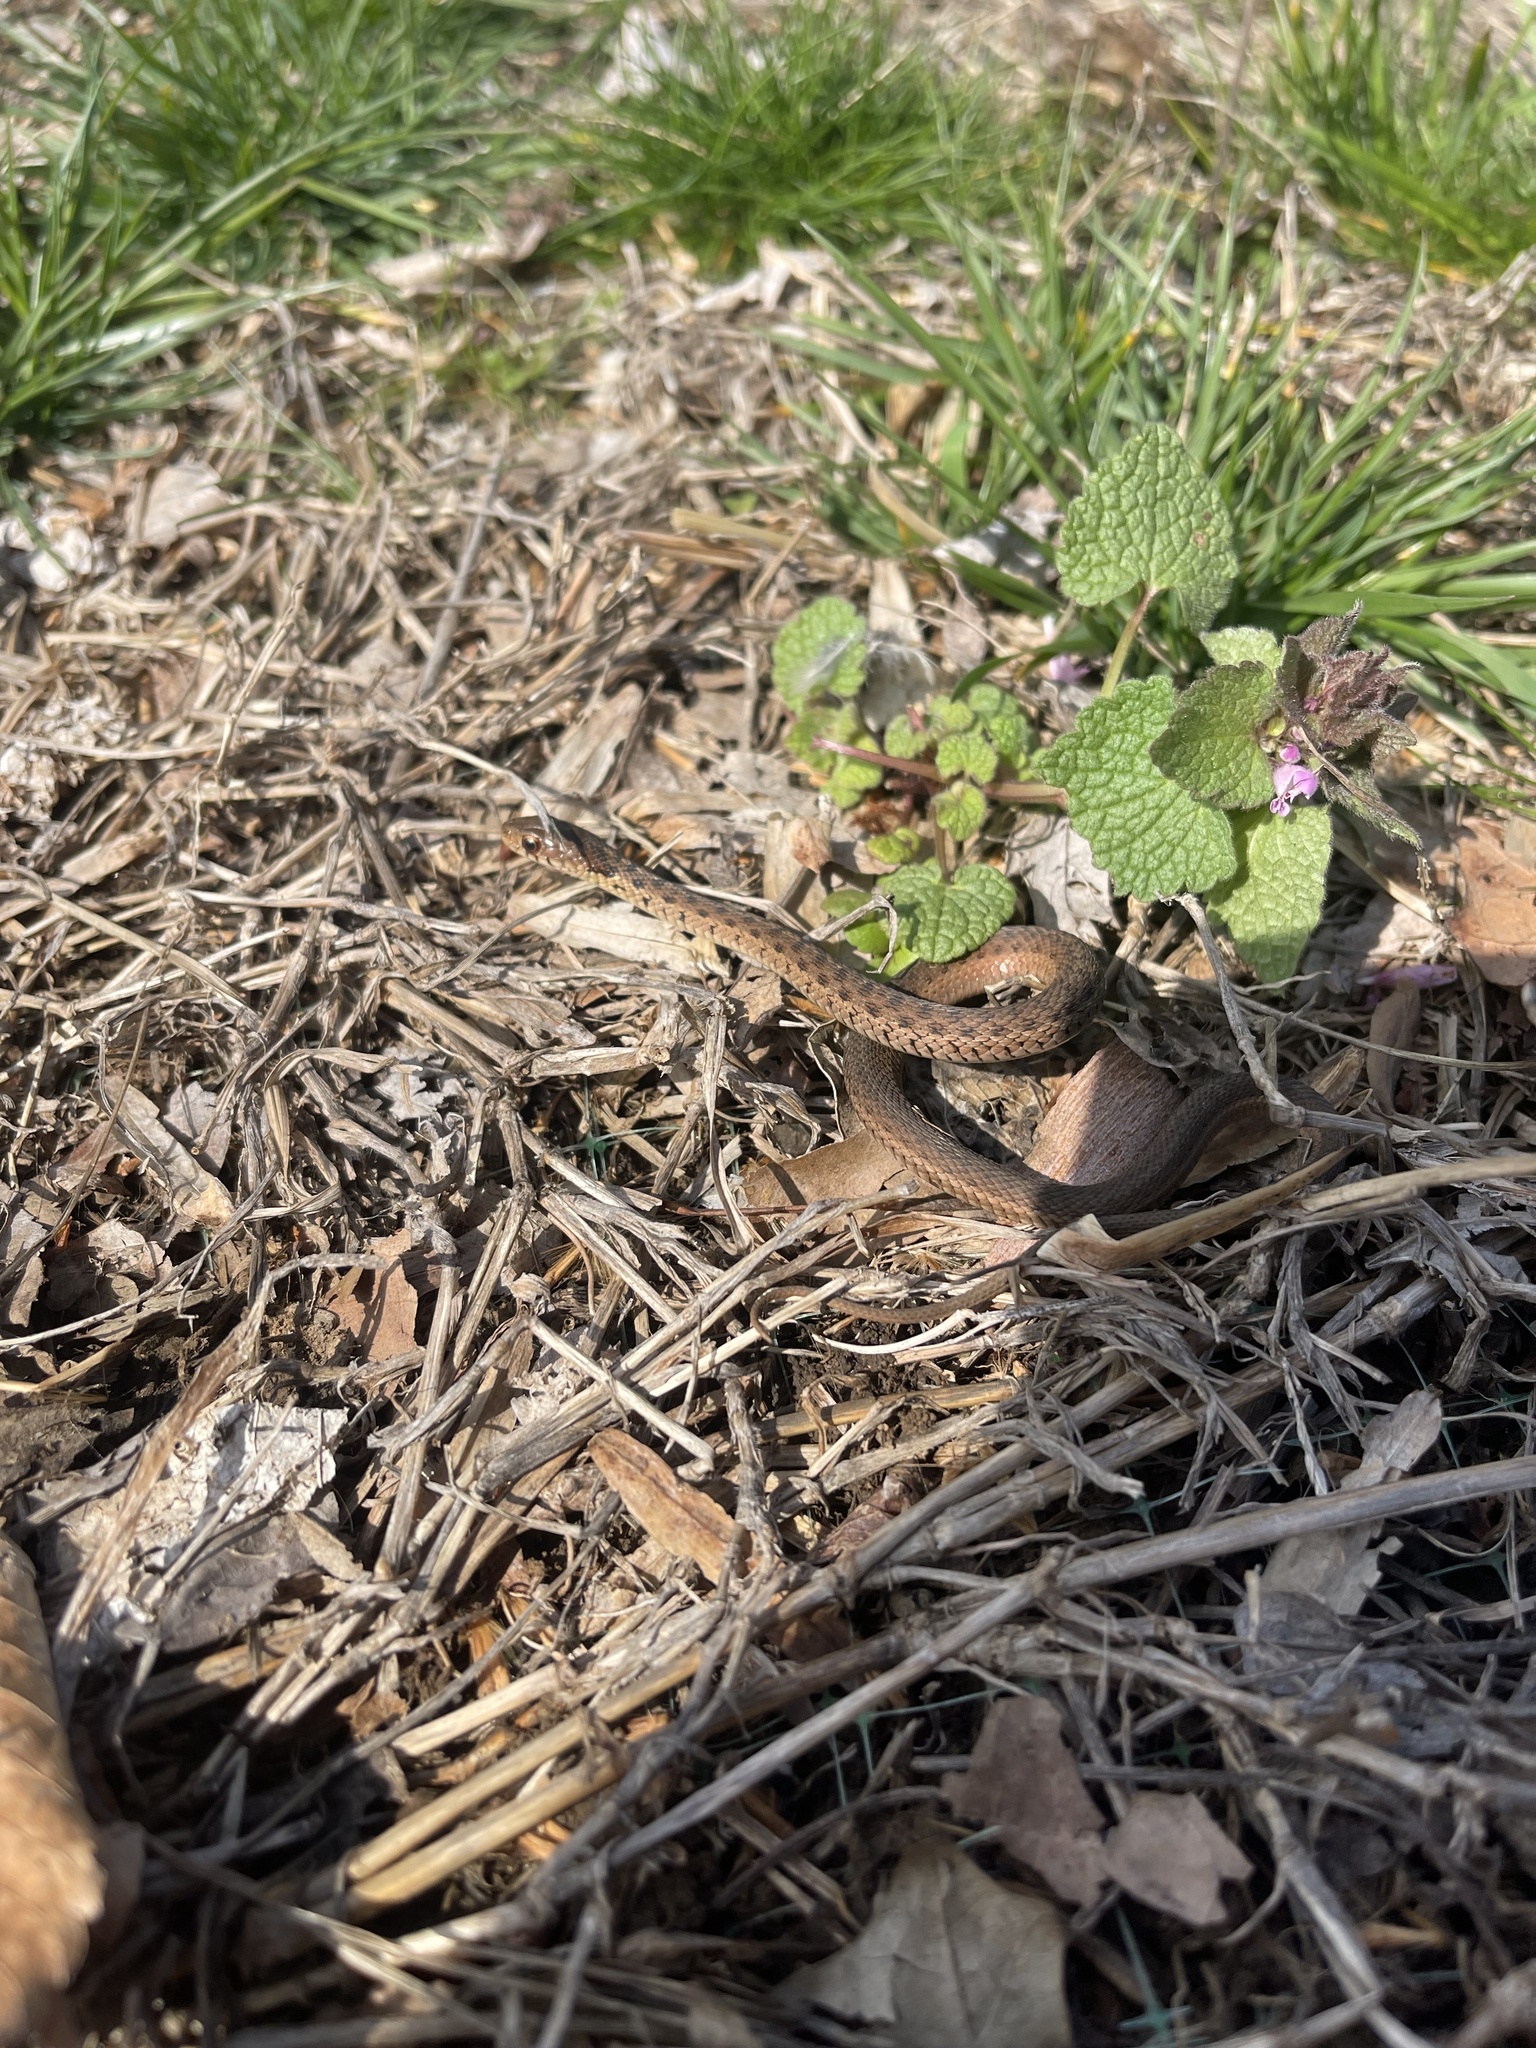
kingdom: Animalia
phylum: Chordata
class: Squamata
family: Colubridae
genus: Thamnophis
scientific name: Thamnophis sirtalis
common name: Common garter snake
